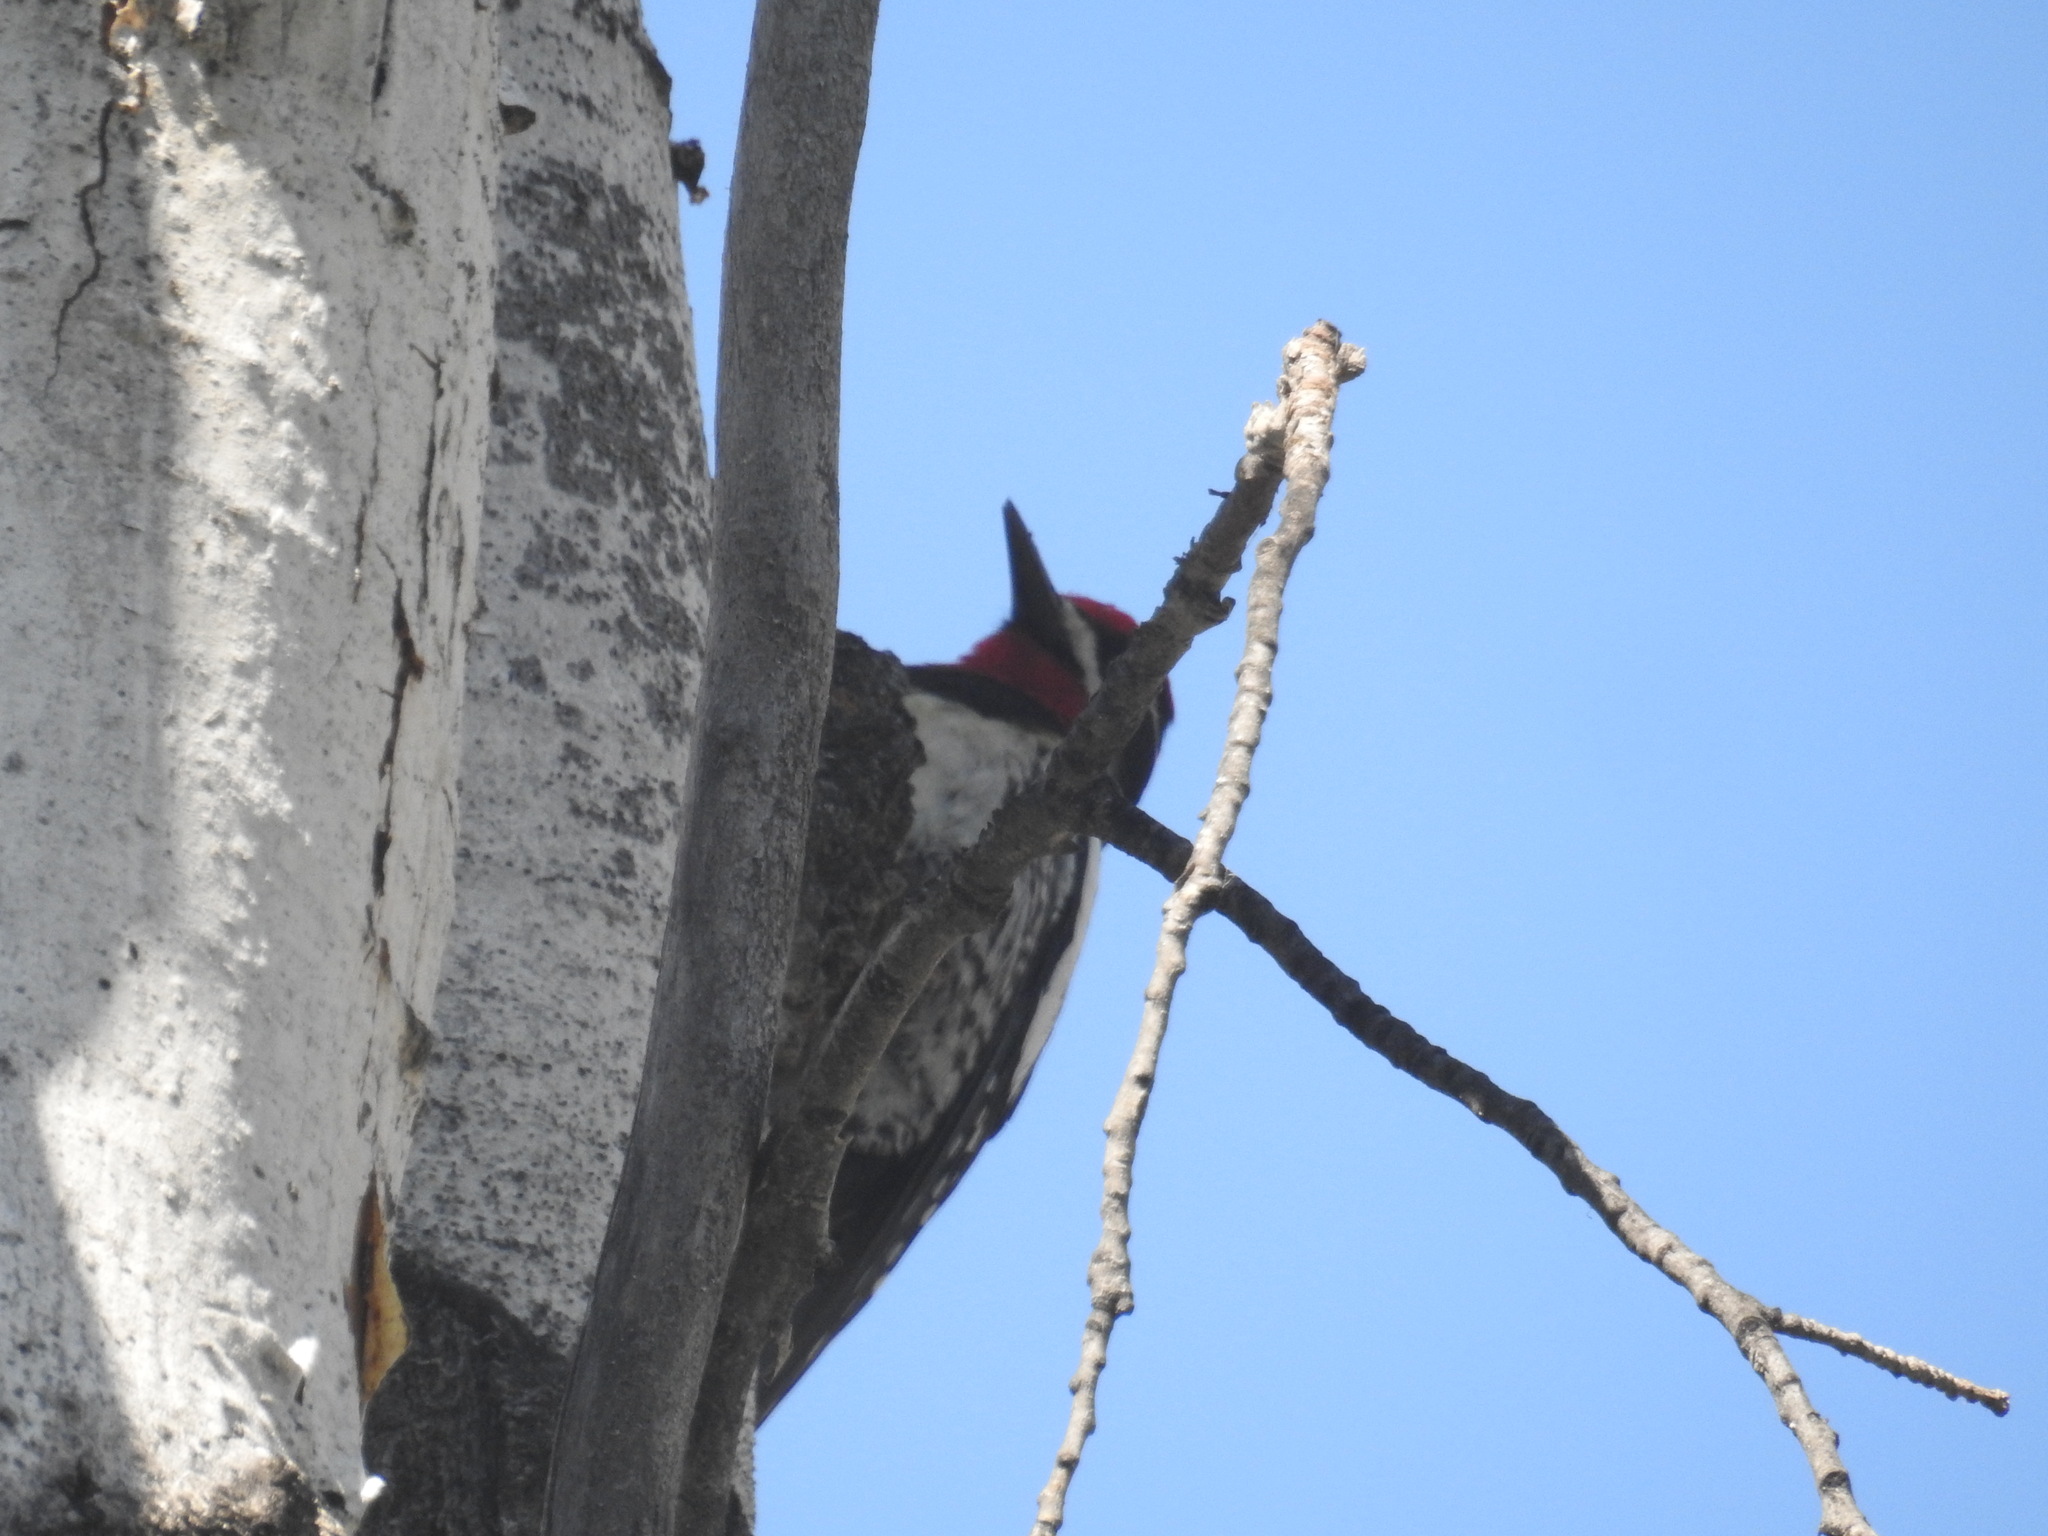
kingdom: Animalia
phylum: Chordata
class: Aves
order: Piciformes
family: Picidae
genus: Sphyrapicus
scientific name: Sphyrapicus nuchalis
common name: Red-naped sapsucker
